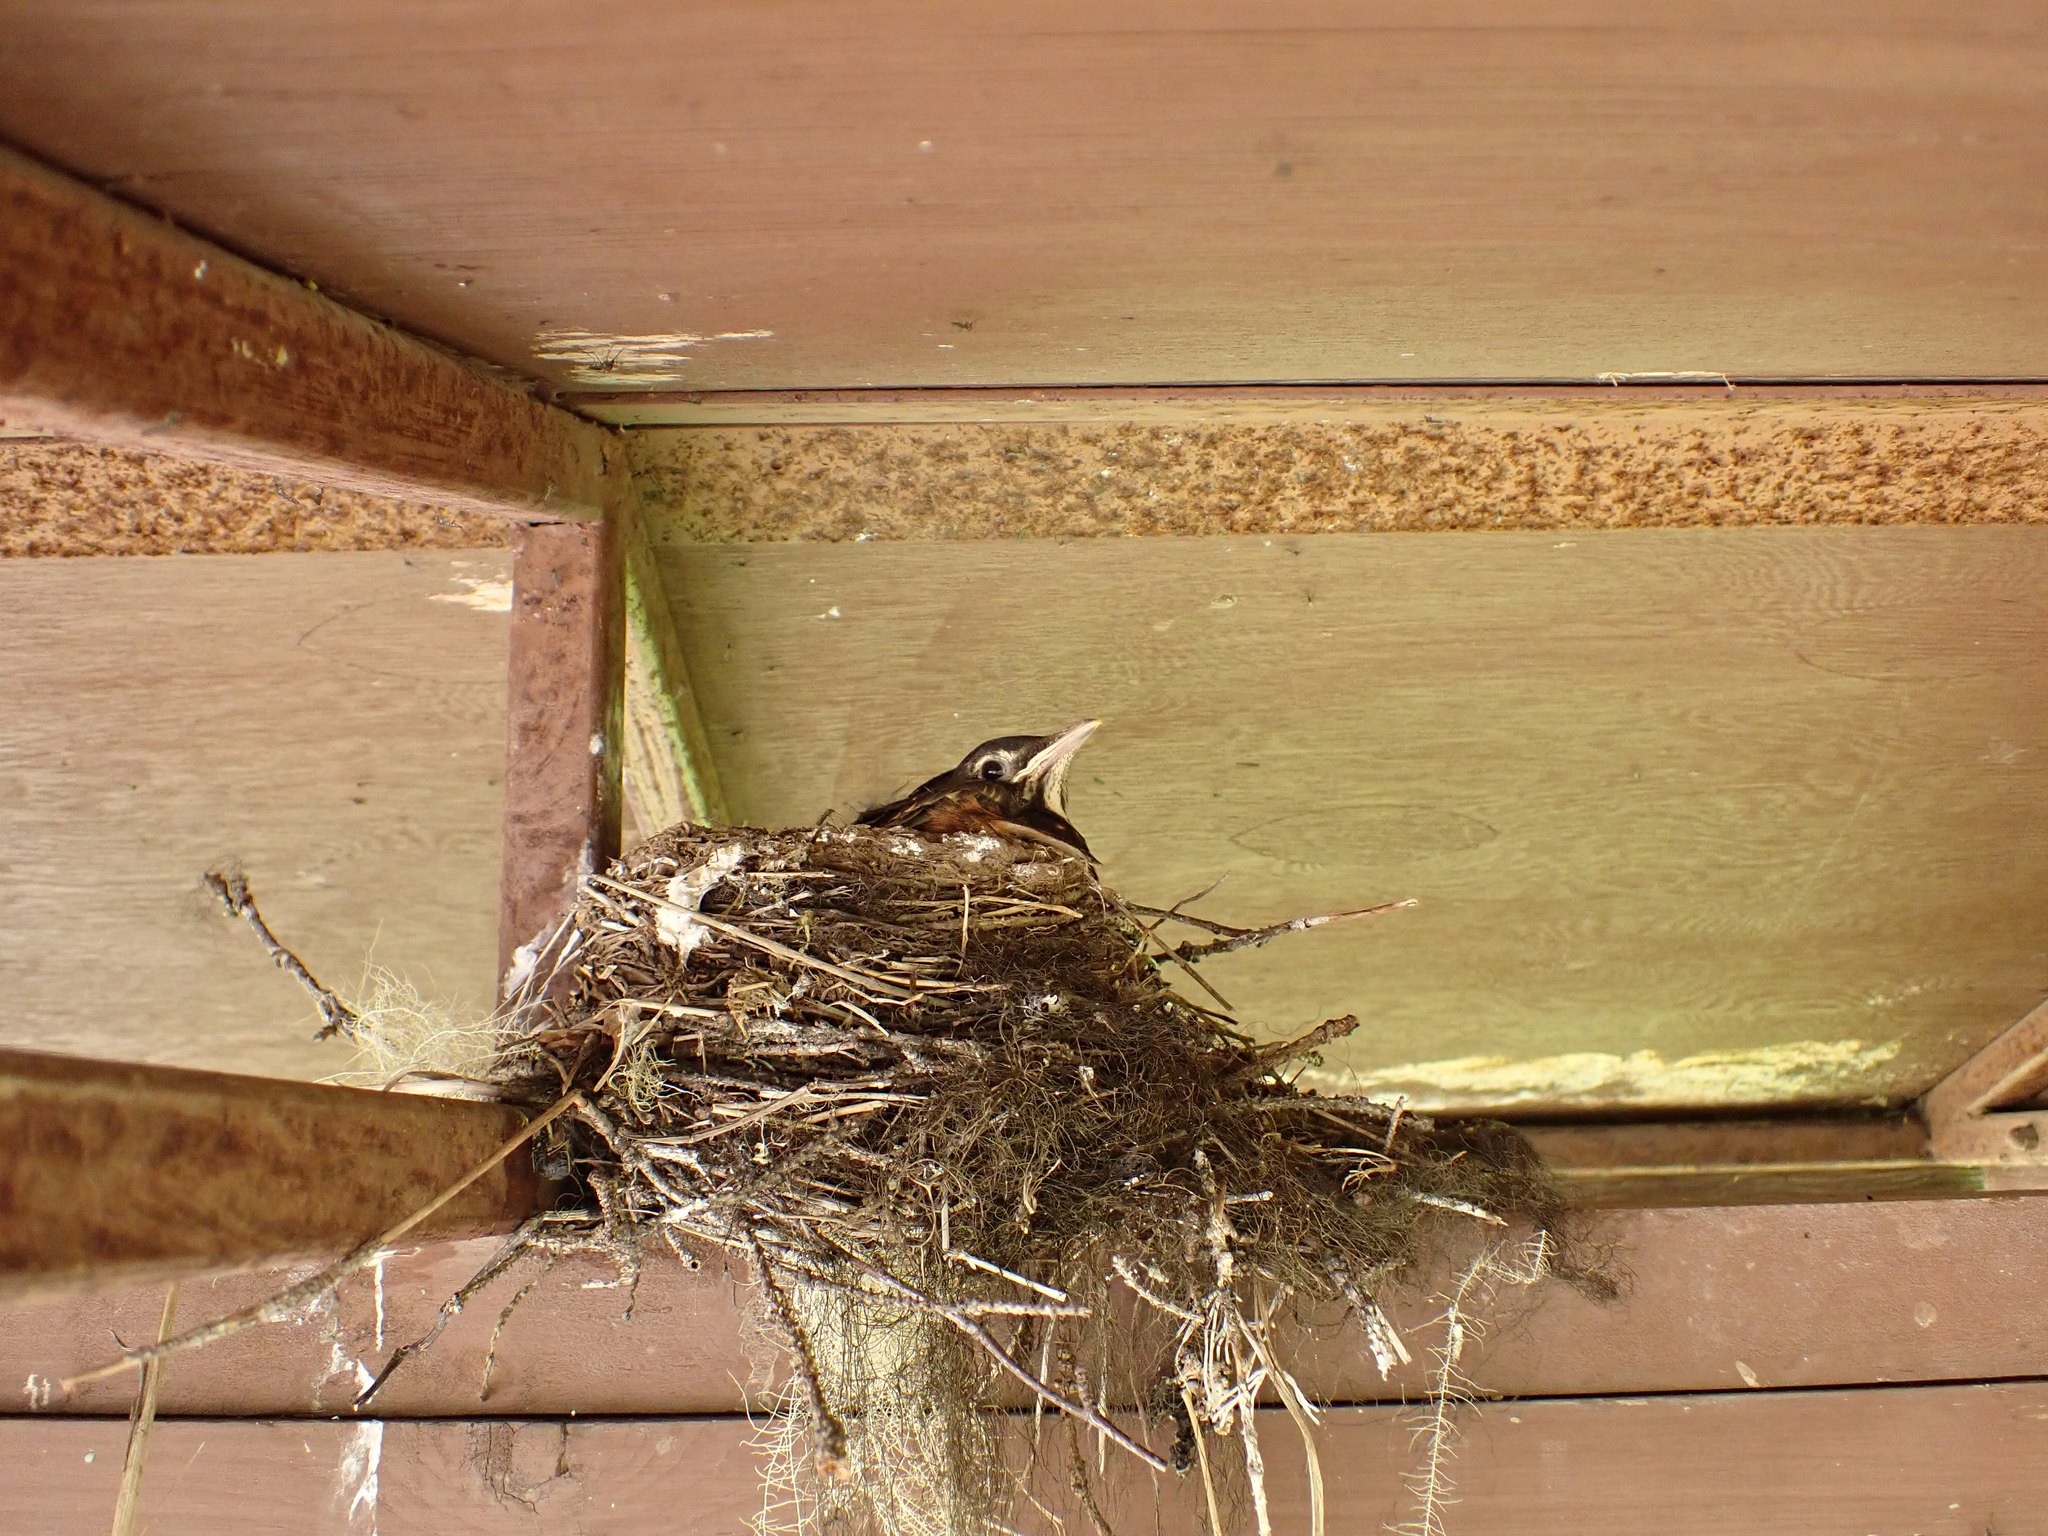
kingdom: Animalia
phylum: Chordata
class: Aves
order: Passeriformes
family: Turdidae
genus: Turdus
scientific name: Turdus migratorius
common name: American robin
